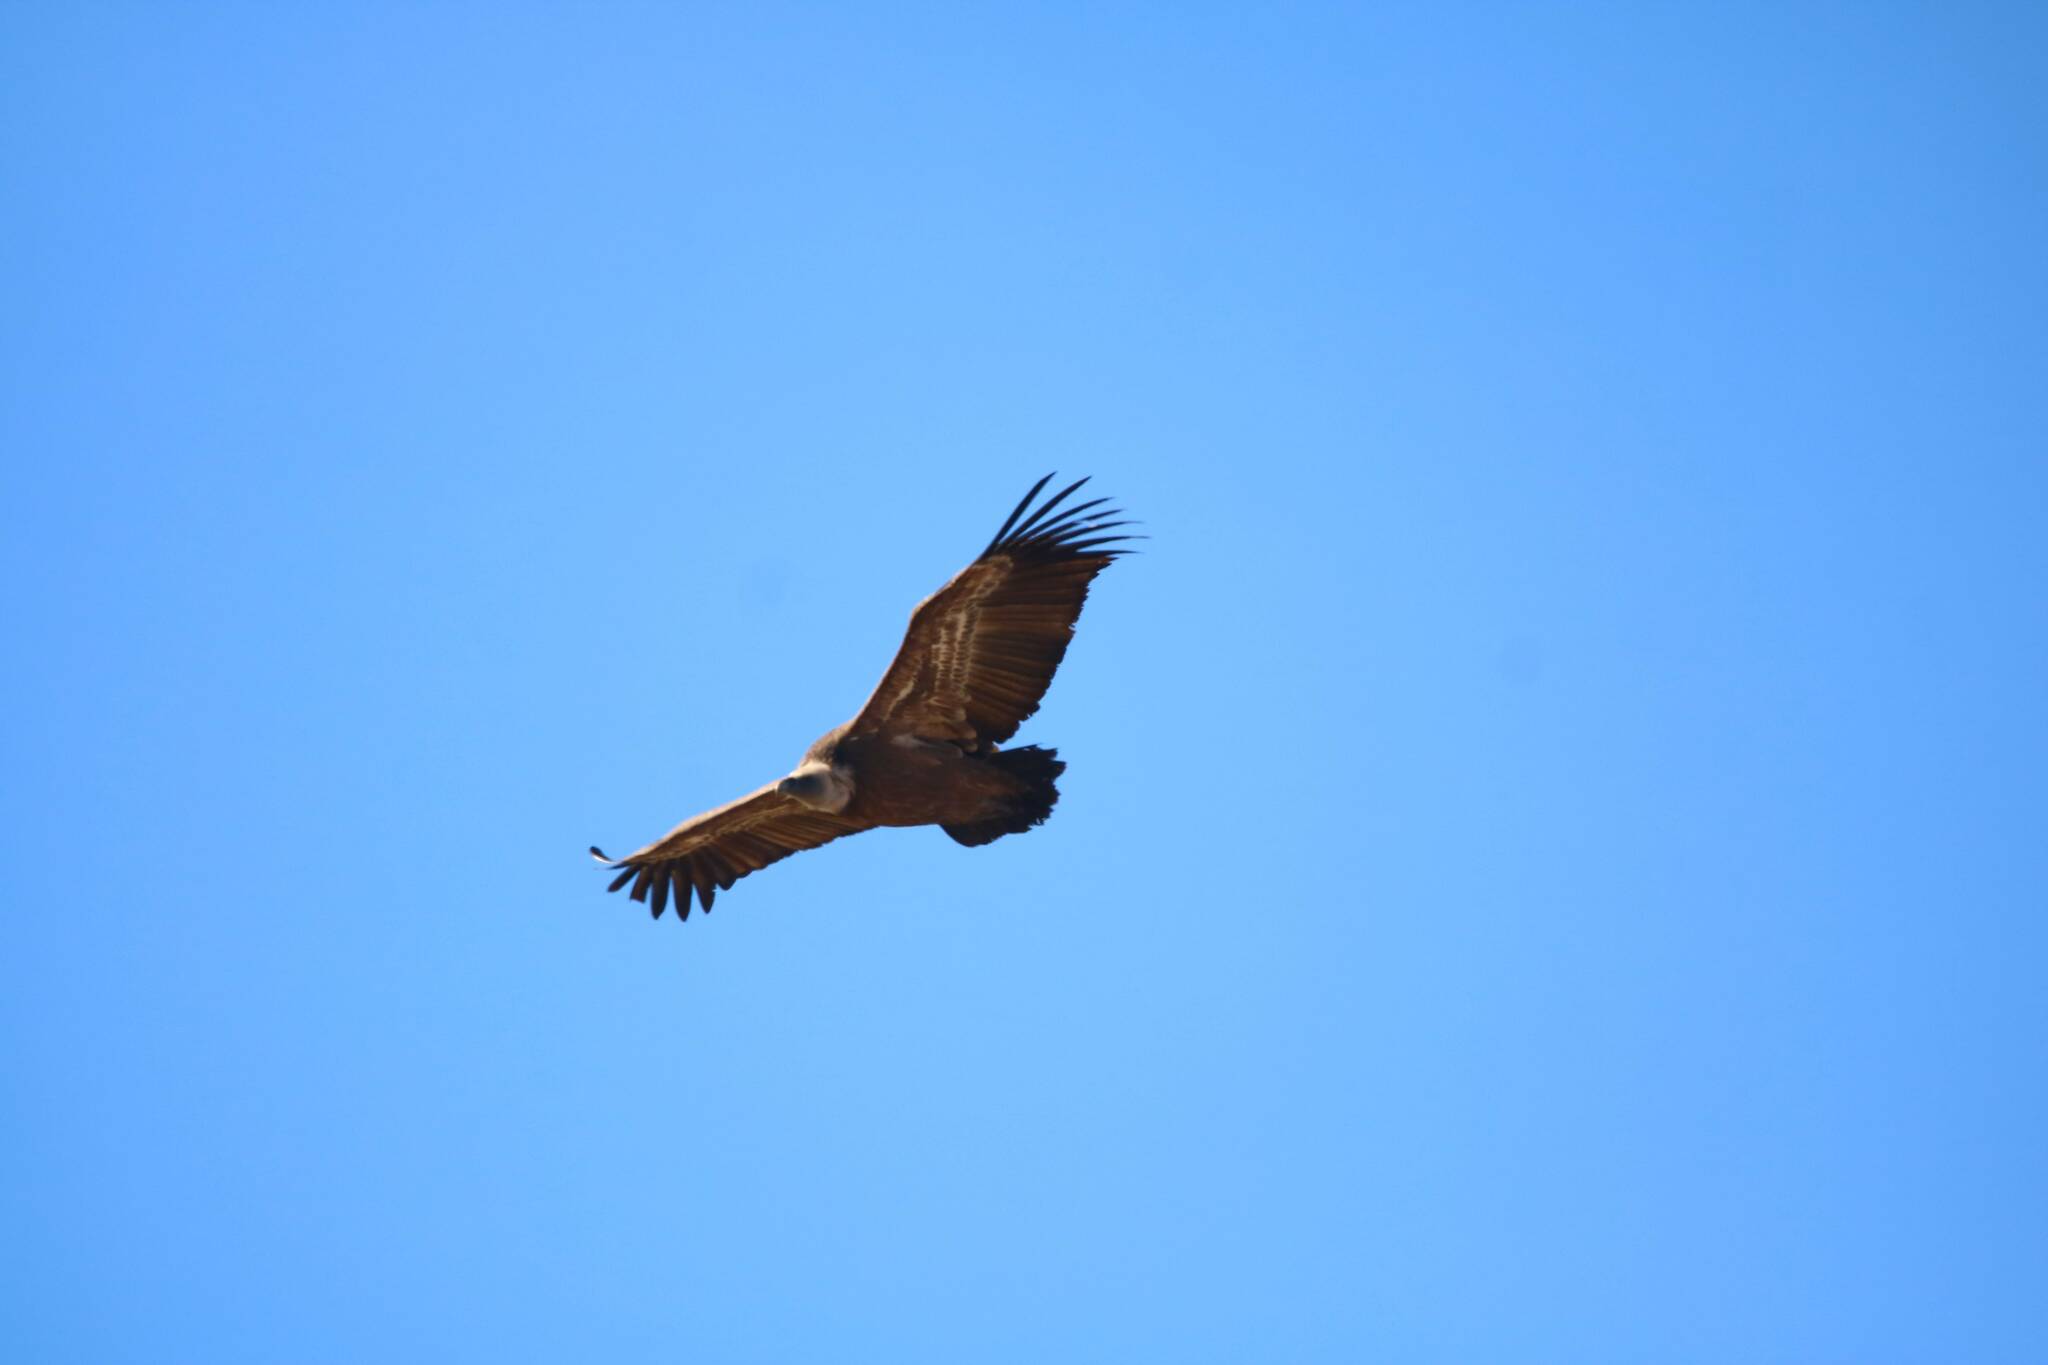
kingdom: Animalia
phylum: Chordata
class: Aves
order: Accipitriformes
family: Accipitridae
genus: Gyps
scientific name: Gyps fulvus
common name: Griffon vulture
